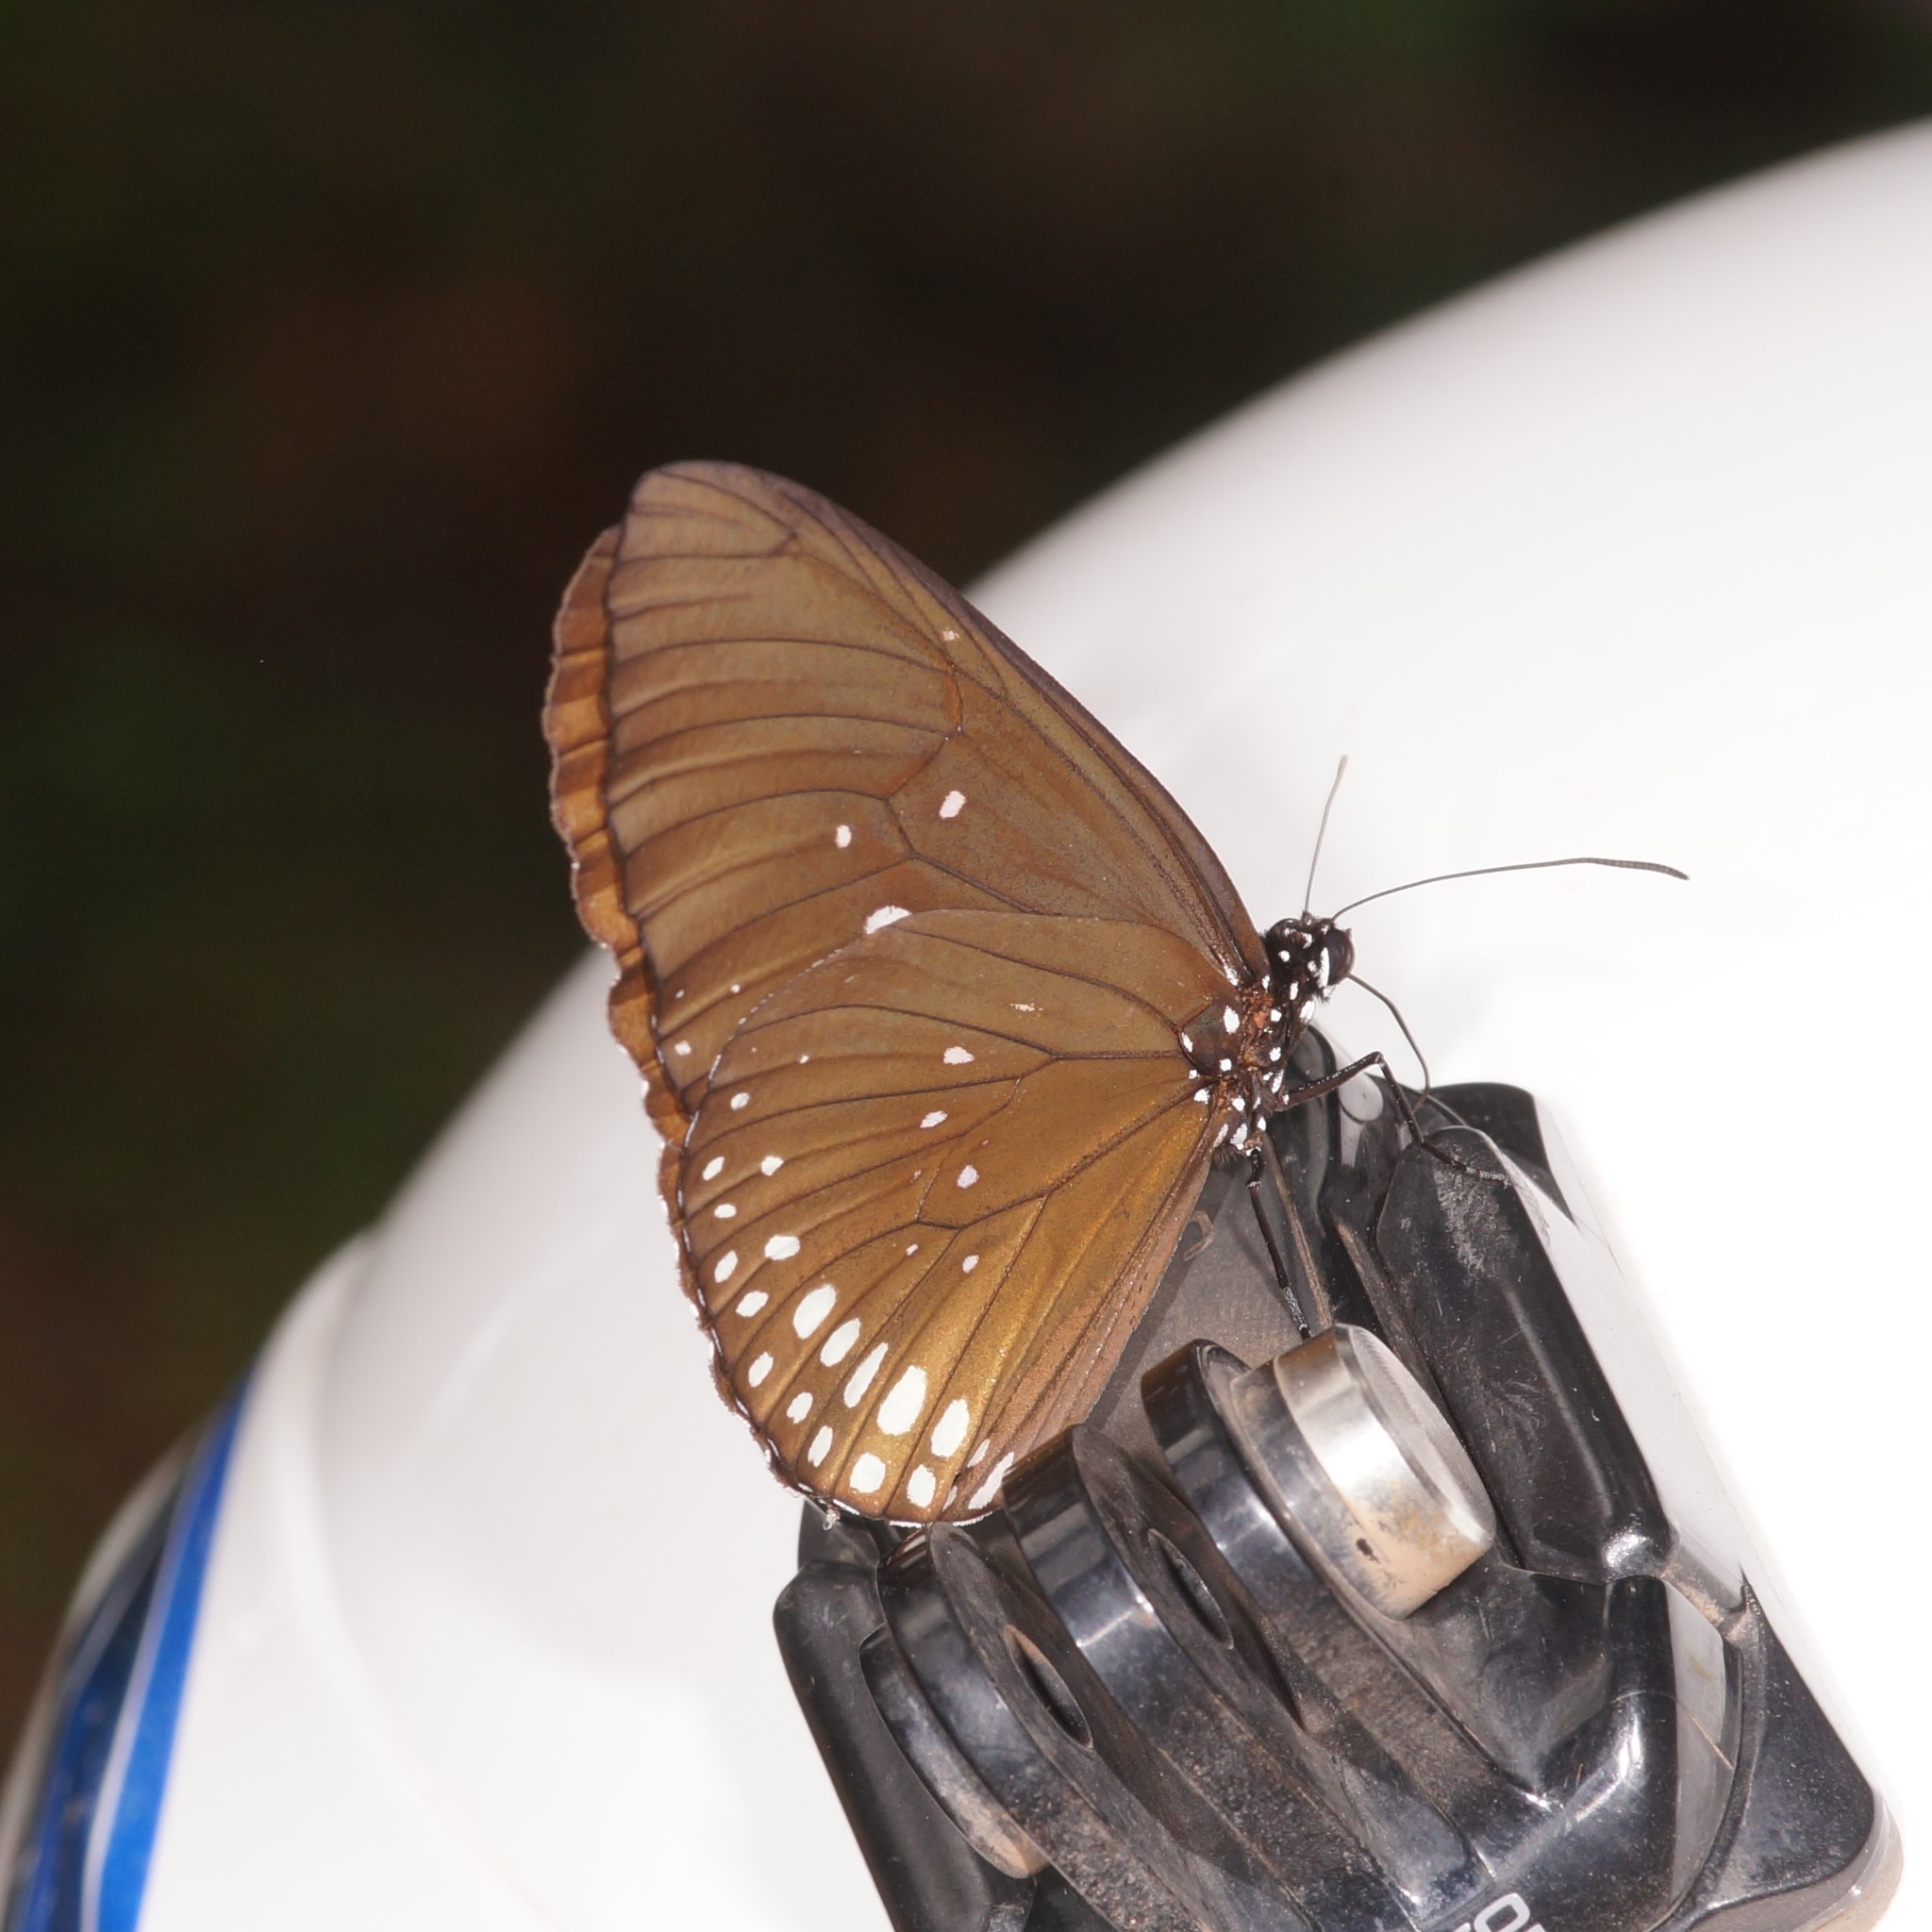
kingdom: Animalia
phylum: Arthropoda
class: Insecta
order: Lepidoptera
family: Nymphalidae
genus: Euploea
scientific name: Euploea algea
